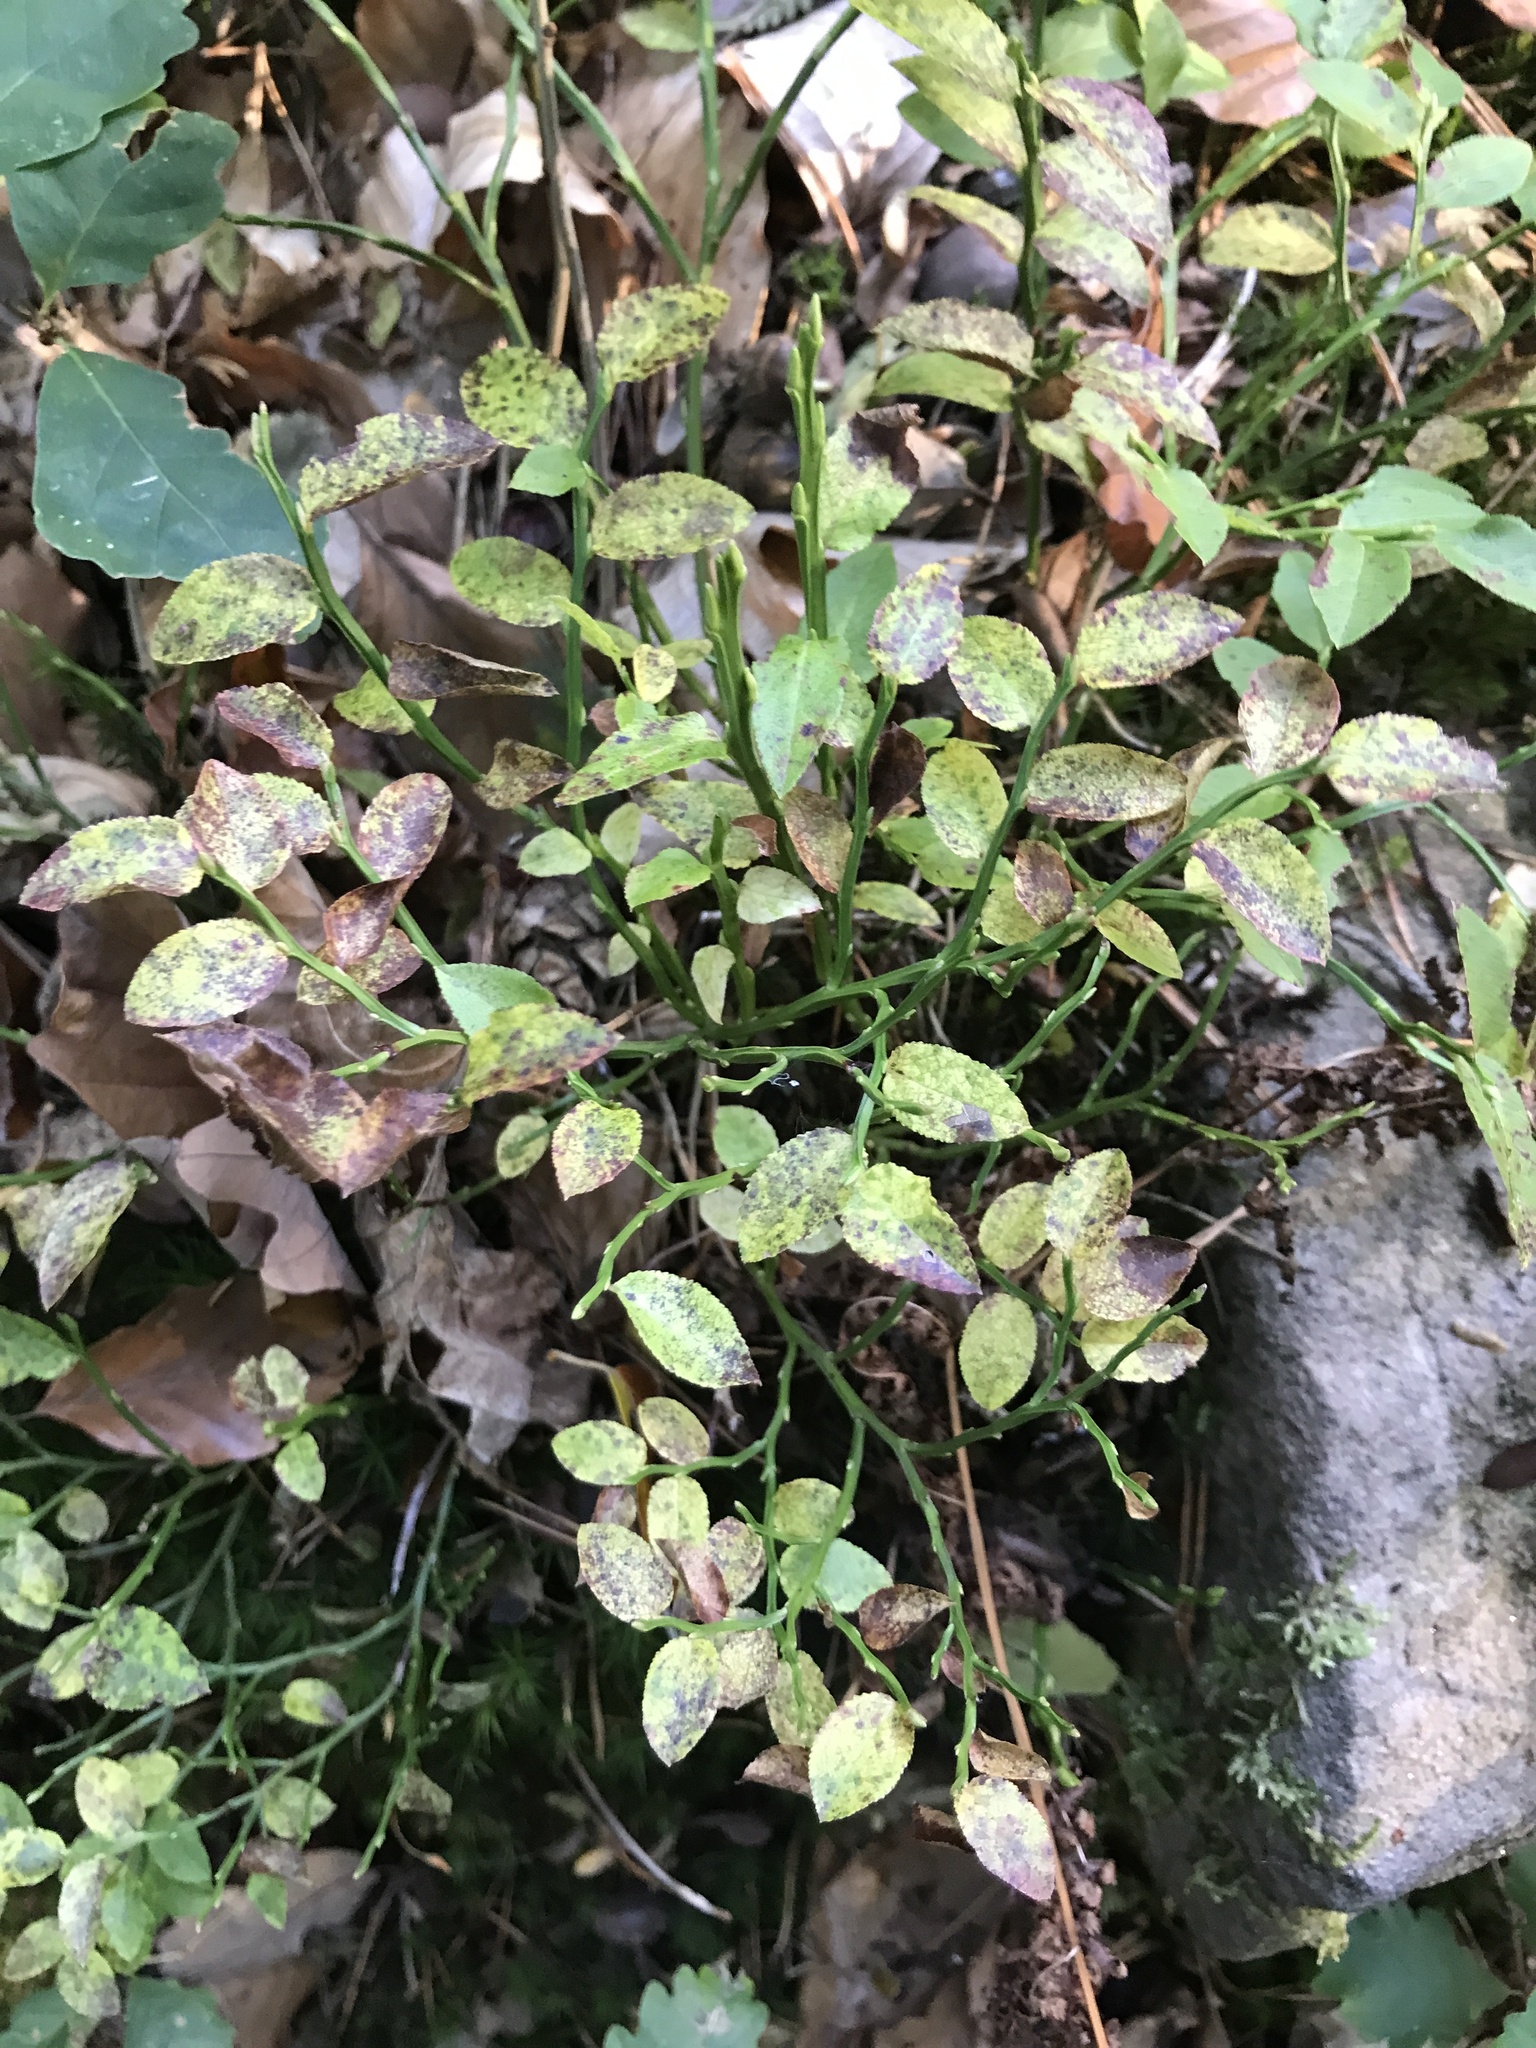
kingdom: Plantae
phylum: Tracheophyta
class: Magnoliopsida
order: Ericales
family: Ericaceae
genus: Vaccinium
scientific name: Vaccinium myrtillus
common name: Bilberry
